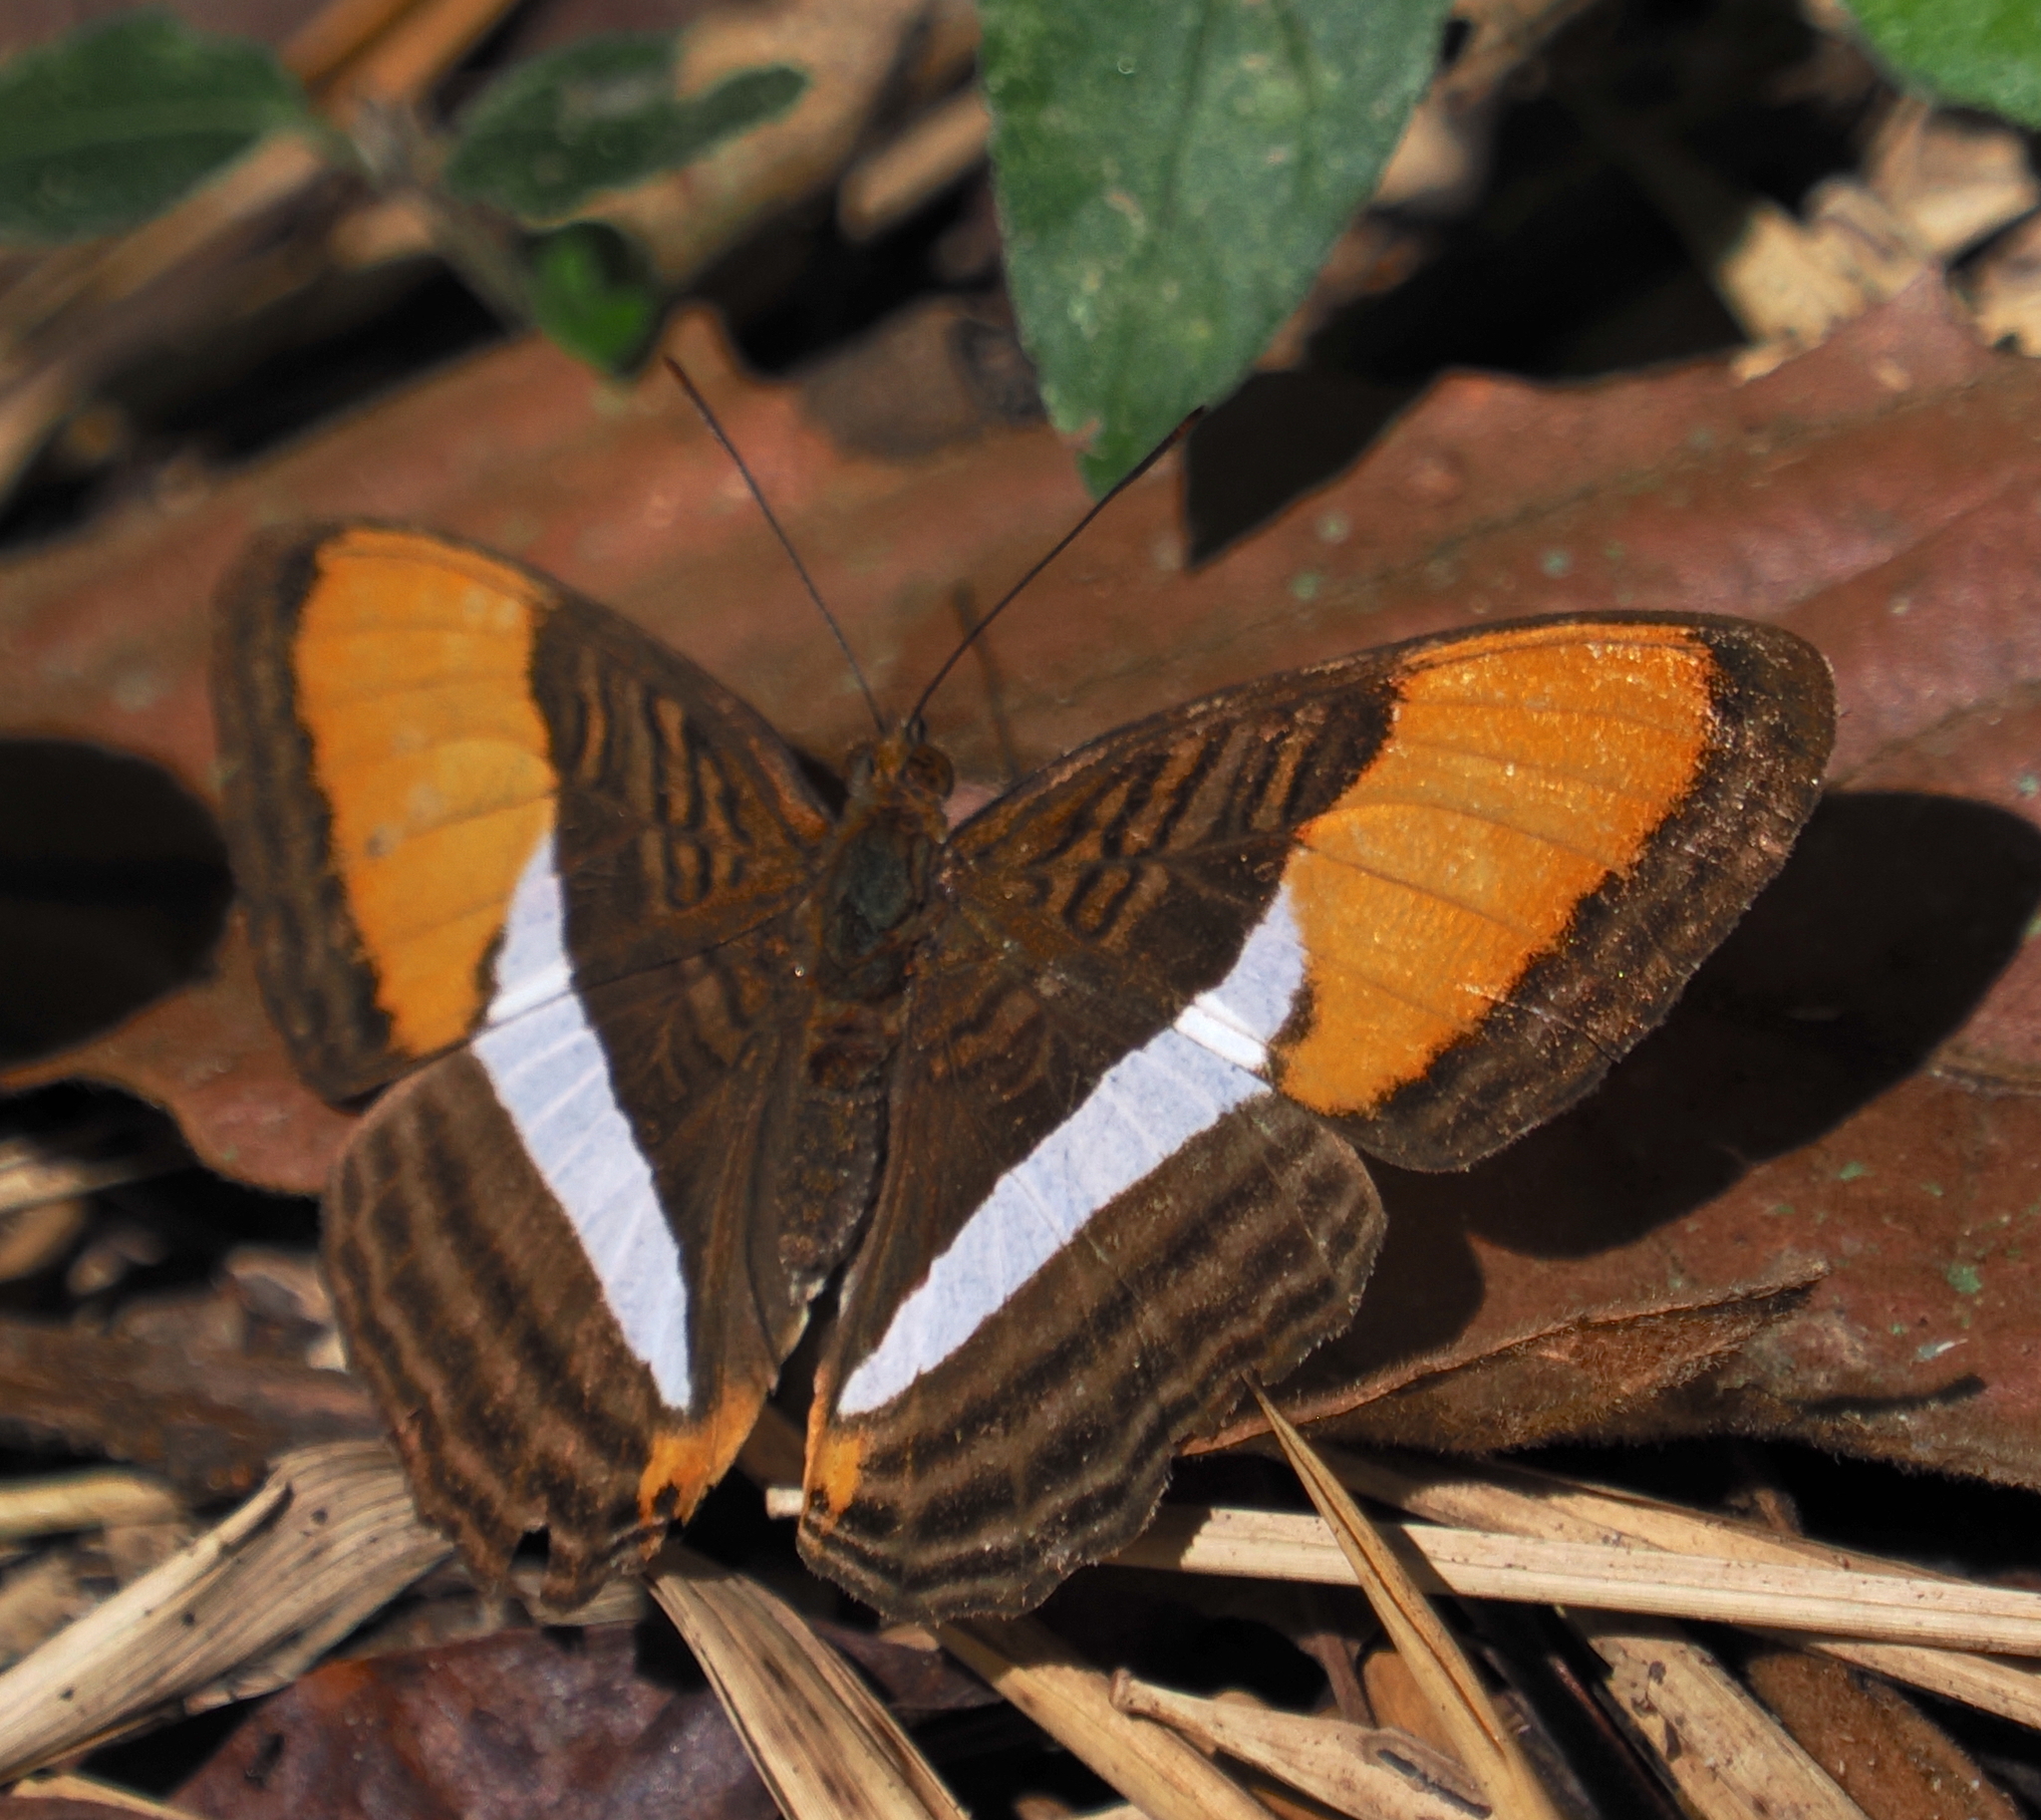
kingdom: Animalia
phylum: Arthropoda
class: Insecta
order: Lepidoptera
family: Nymphalidae
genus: Limenitis
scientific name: Limenitis cytherea
